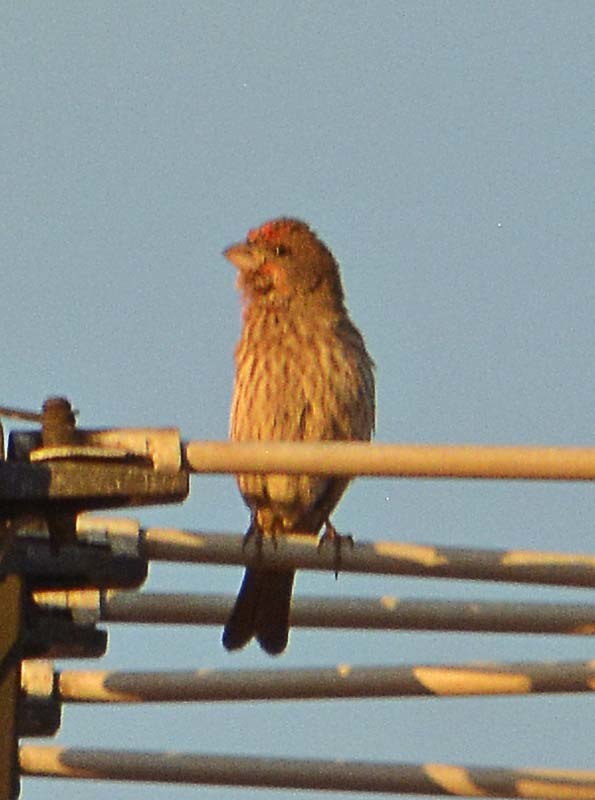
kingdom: Animalia
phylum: Chordata
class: Aves
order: Passeriformes
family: Fringillidae
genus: Haemorhous
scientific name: Haemorhous mexicanus
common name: House finch
